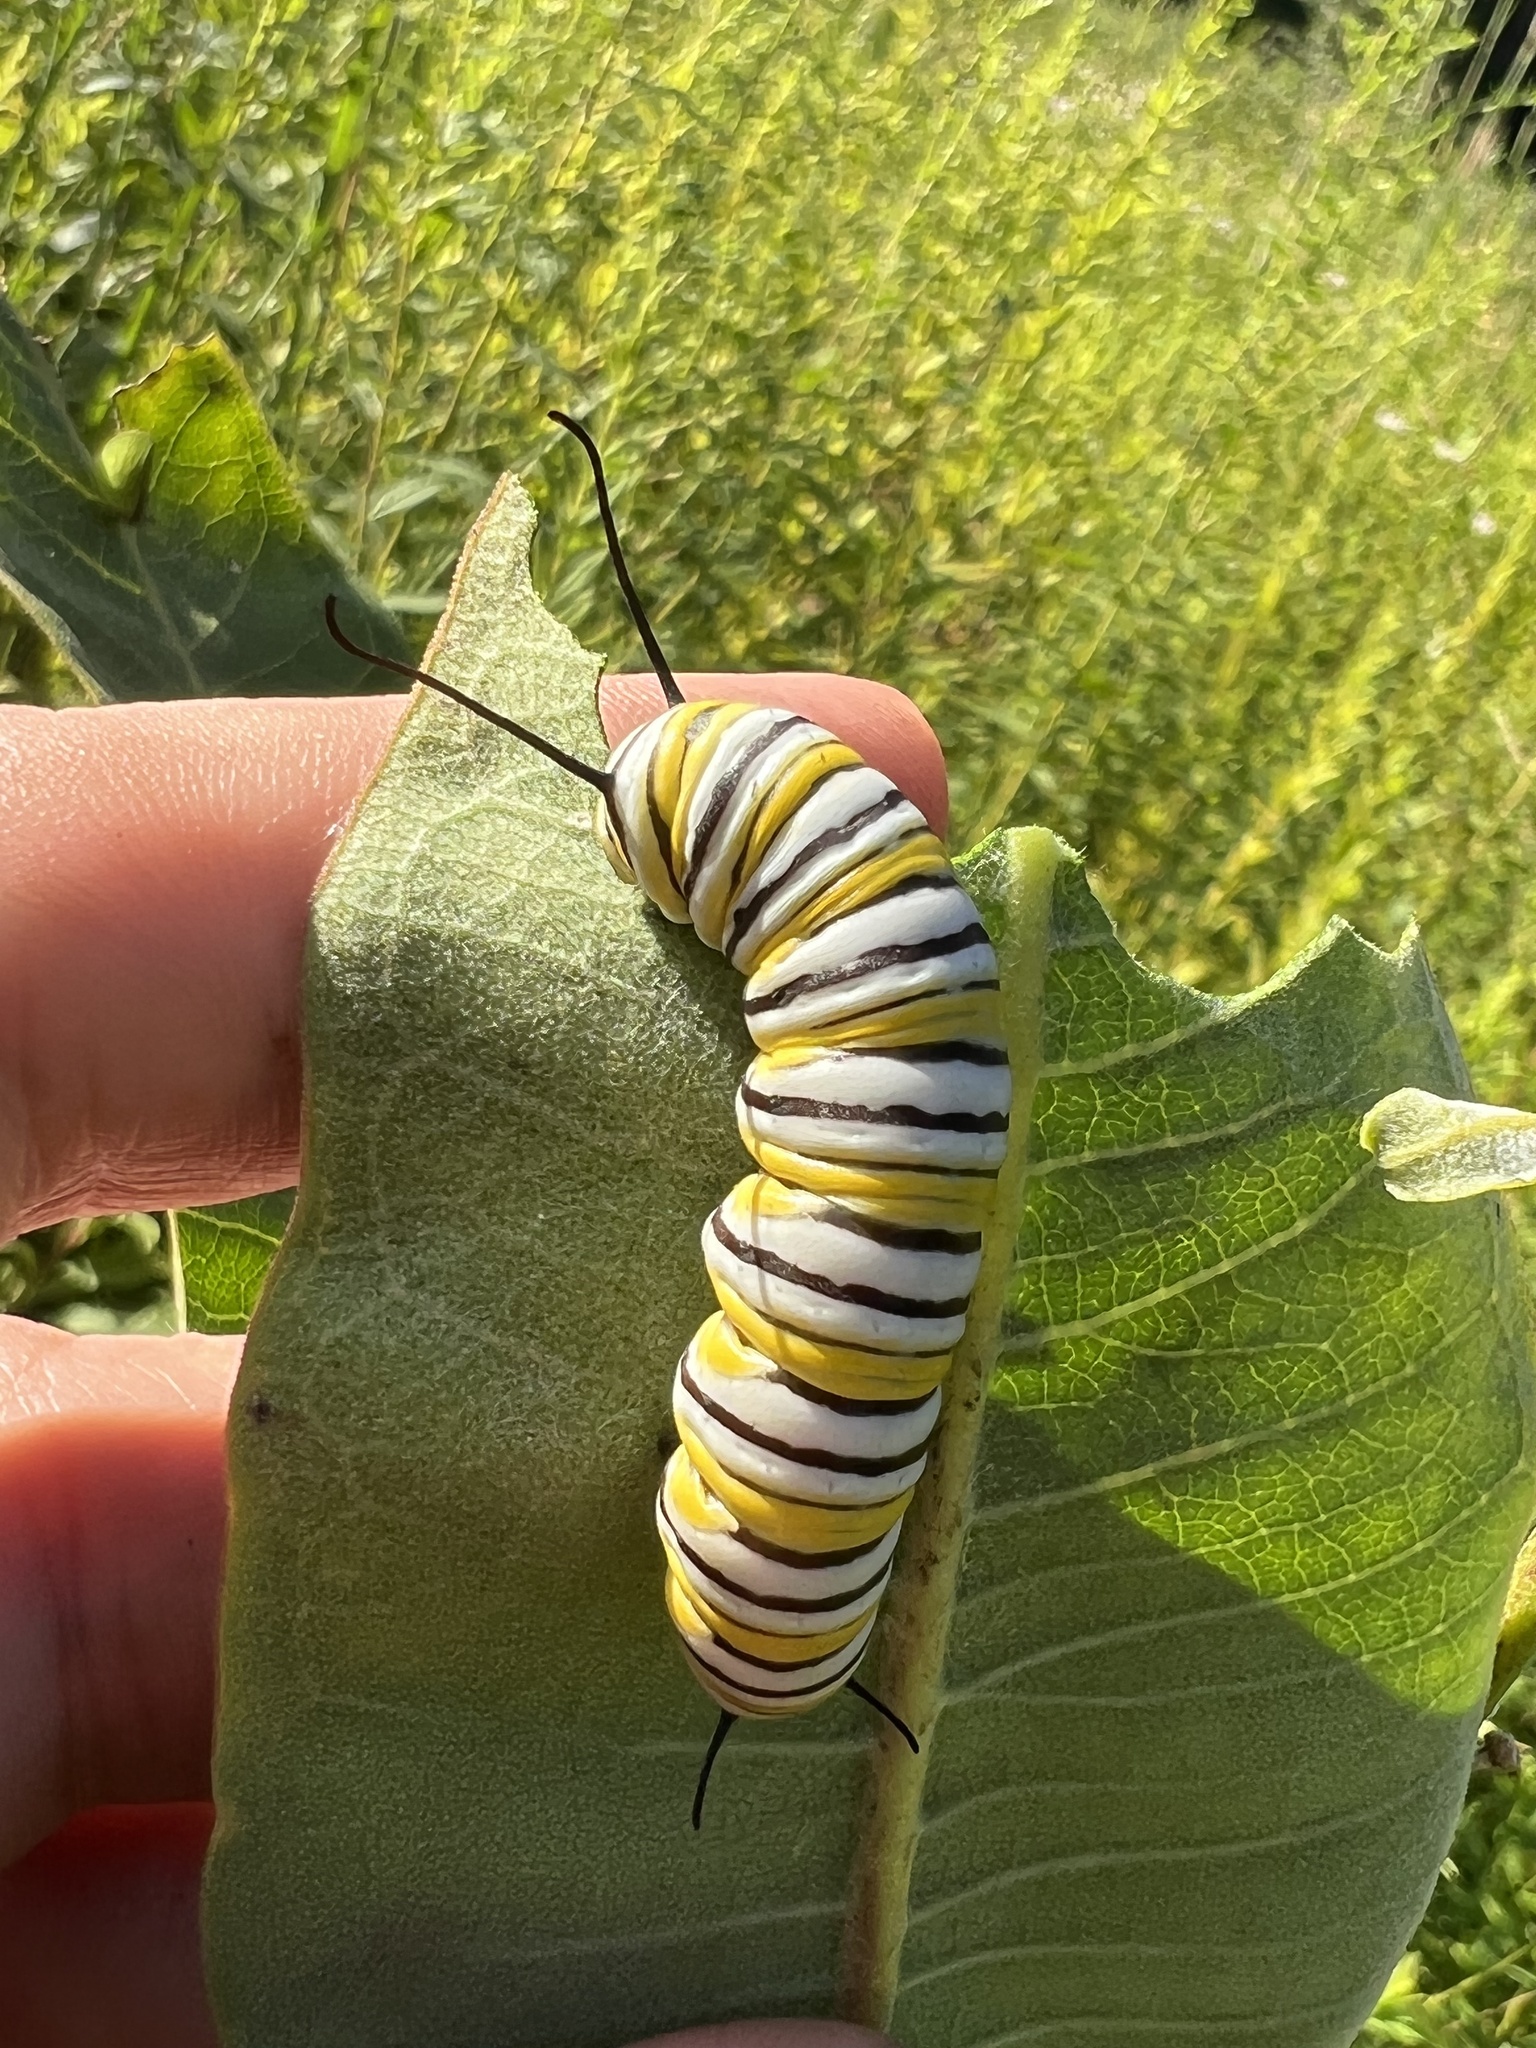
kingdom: Animalia
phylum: Arthropoda
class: Insecta
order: Lepidoptera
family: Nymphalidae
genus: Danaus
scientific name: Danaus plexippus
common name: Monarch
